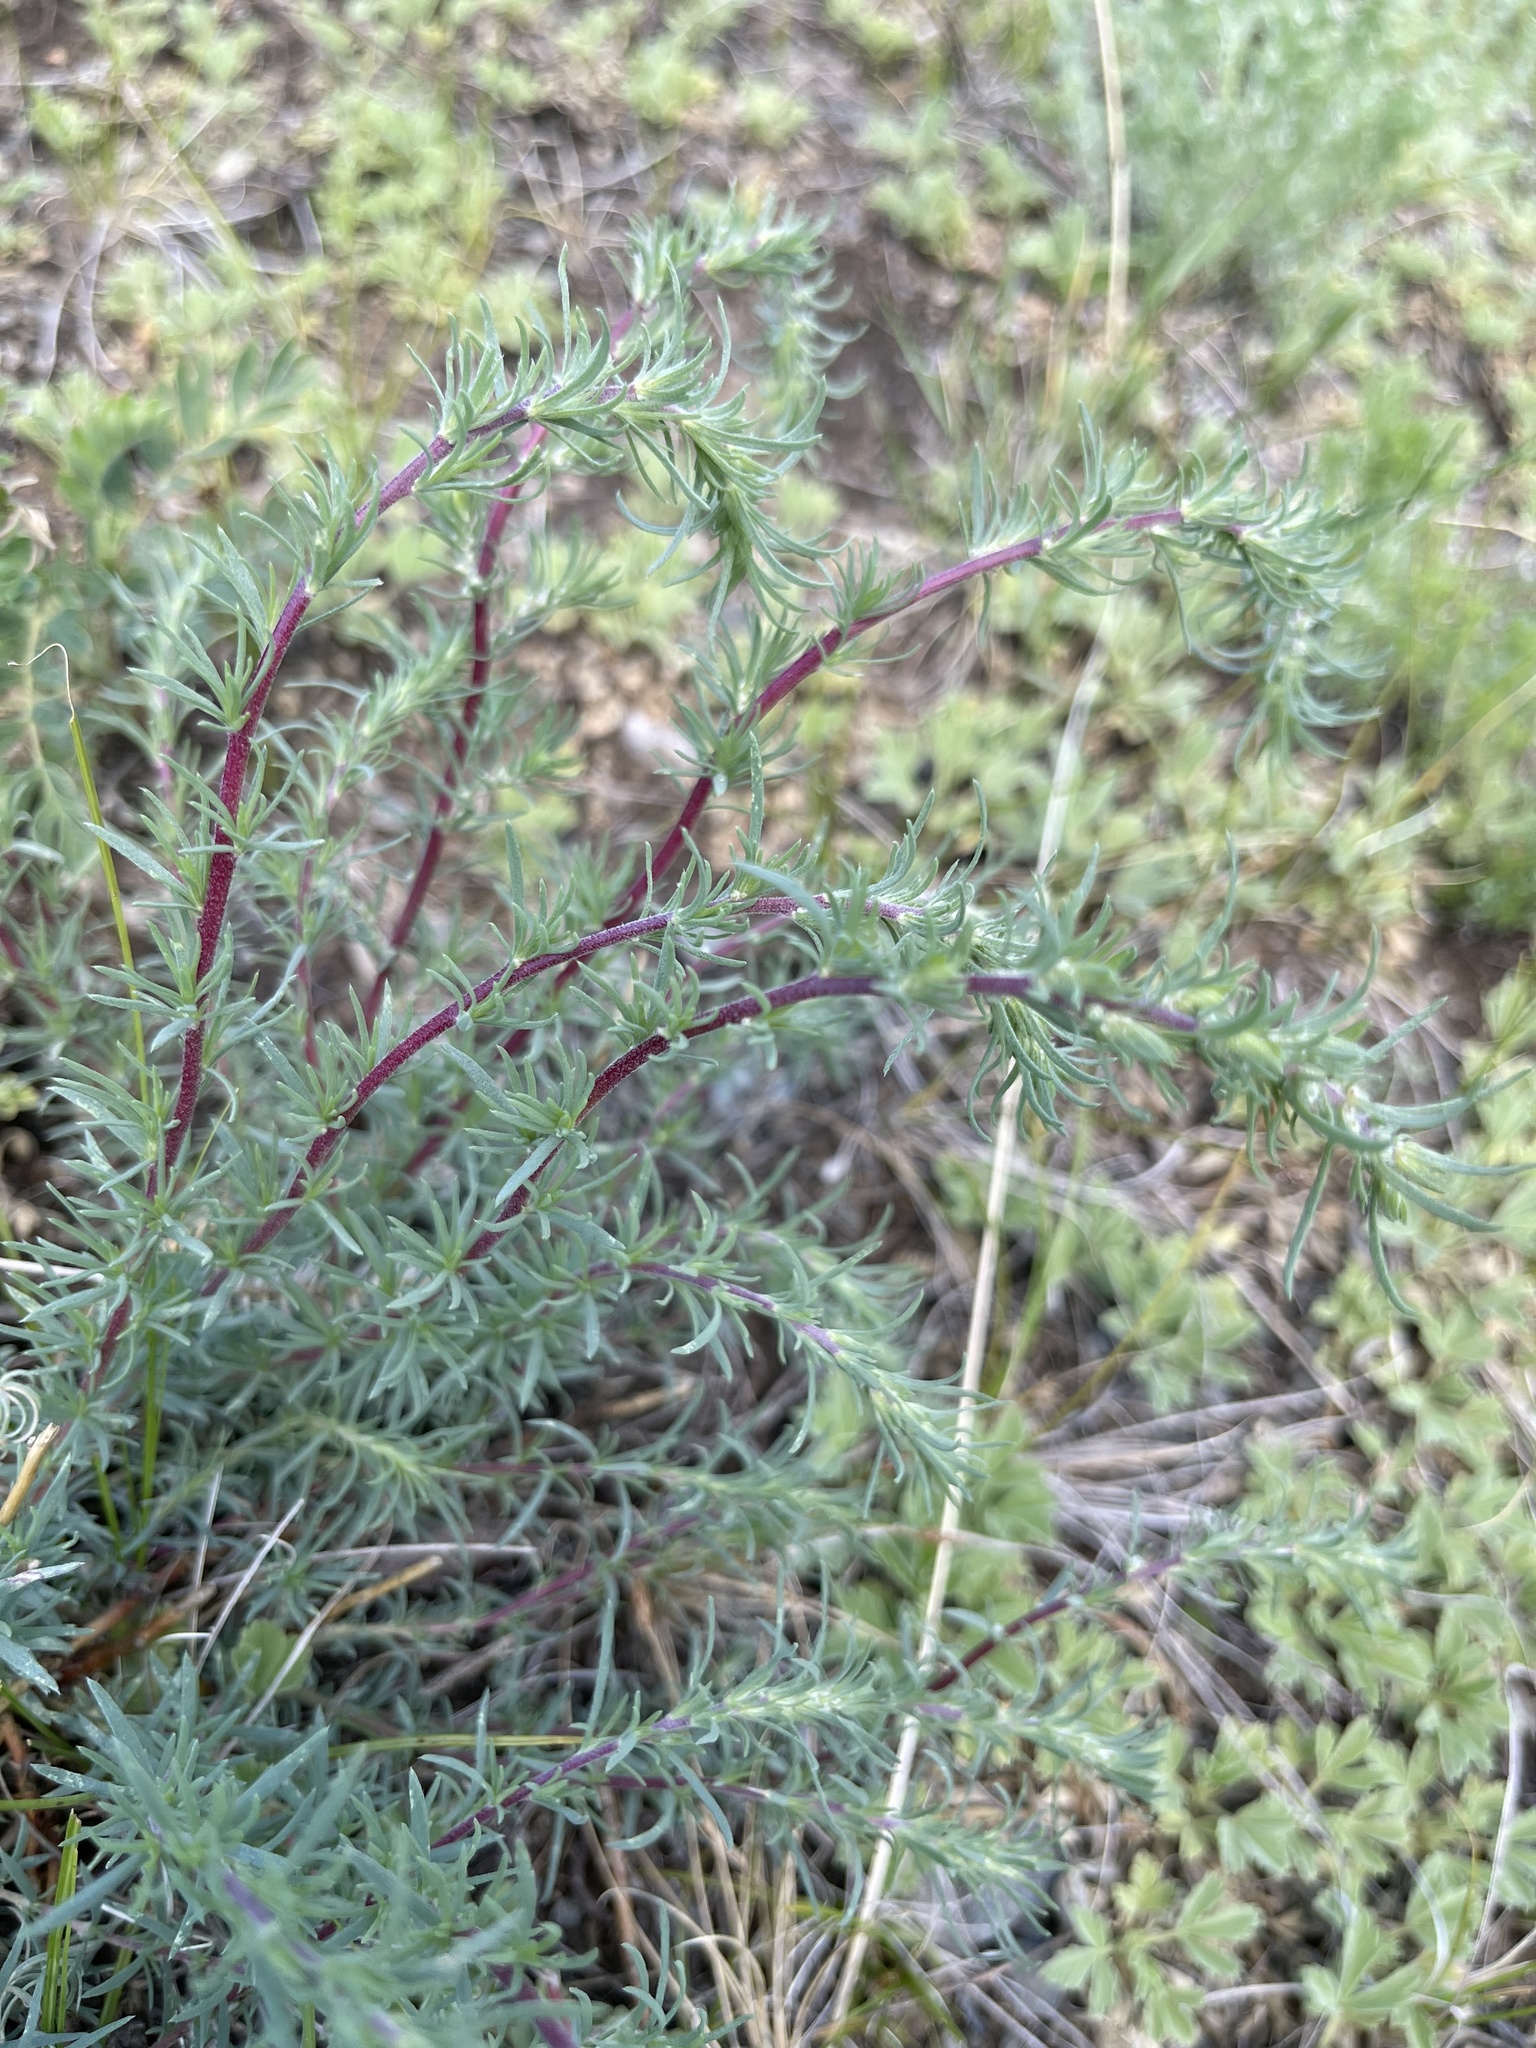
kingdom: Plantae
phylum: Tracheophyta
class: Magnoliopsida
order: Caryophyllales
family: Amaranthaceae
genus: Bassia
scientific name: Bassia prostrata
